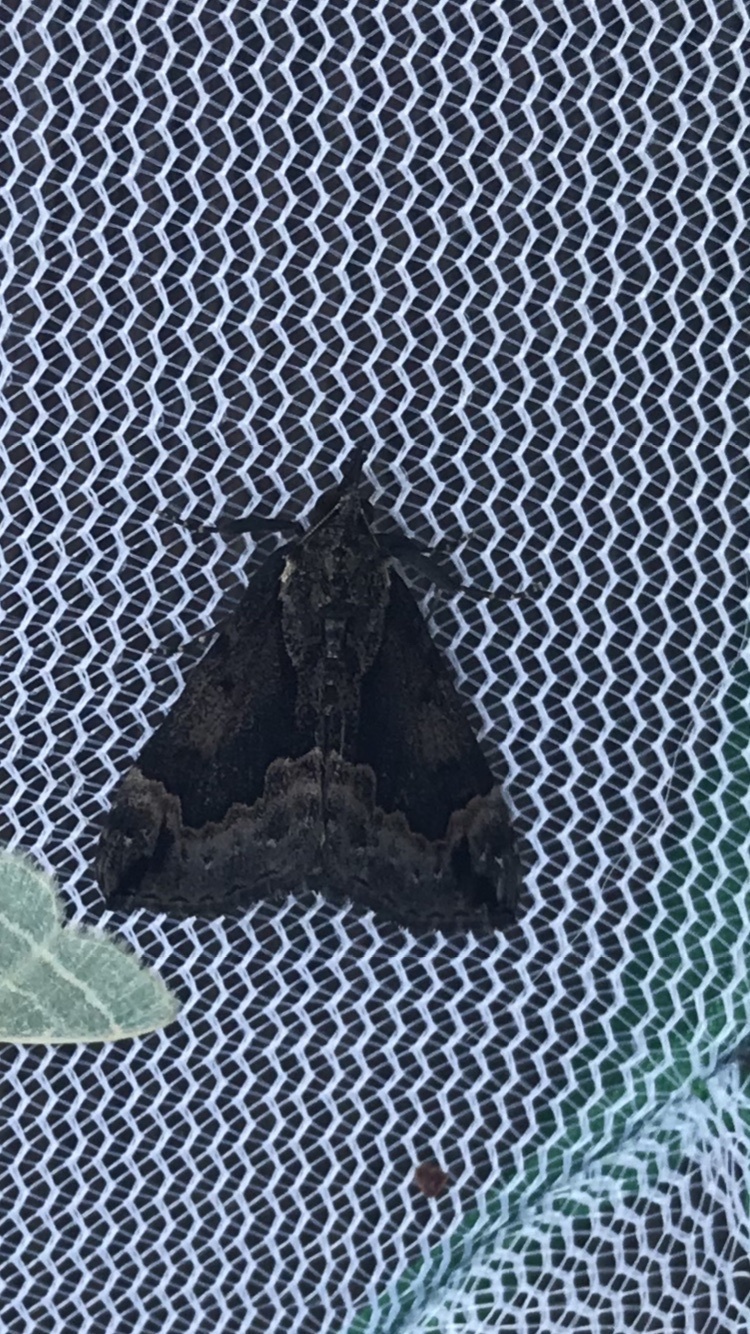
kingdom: Animalia
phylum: Arthropoda
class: Insecta
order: Lepidoptera
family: Erebidae
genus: Hypena
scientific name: Hypena baltimoralis
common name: Baltimore snout
